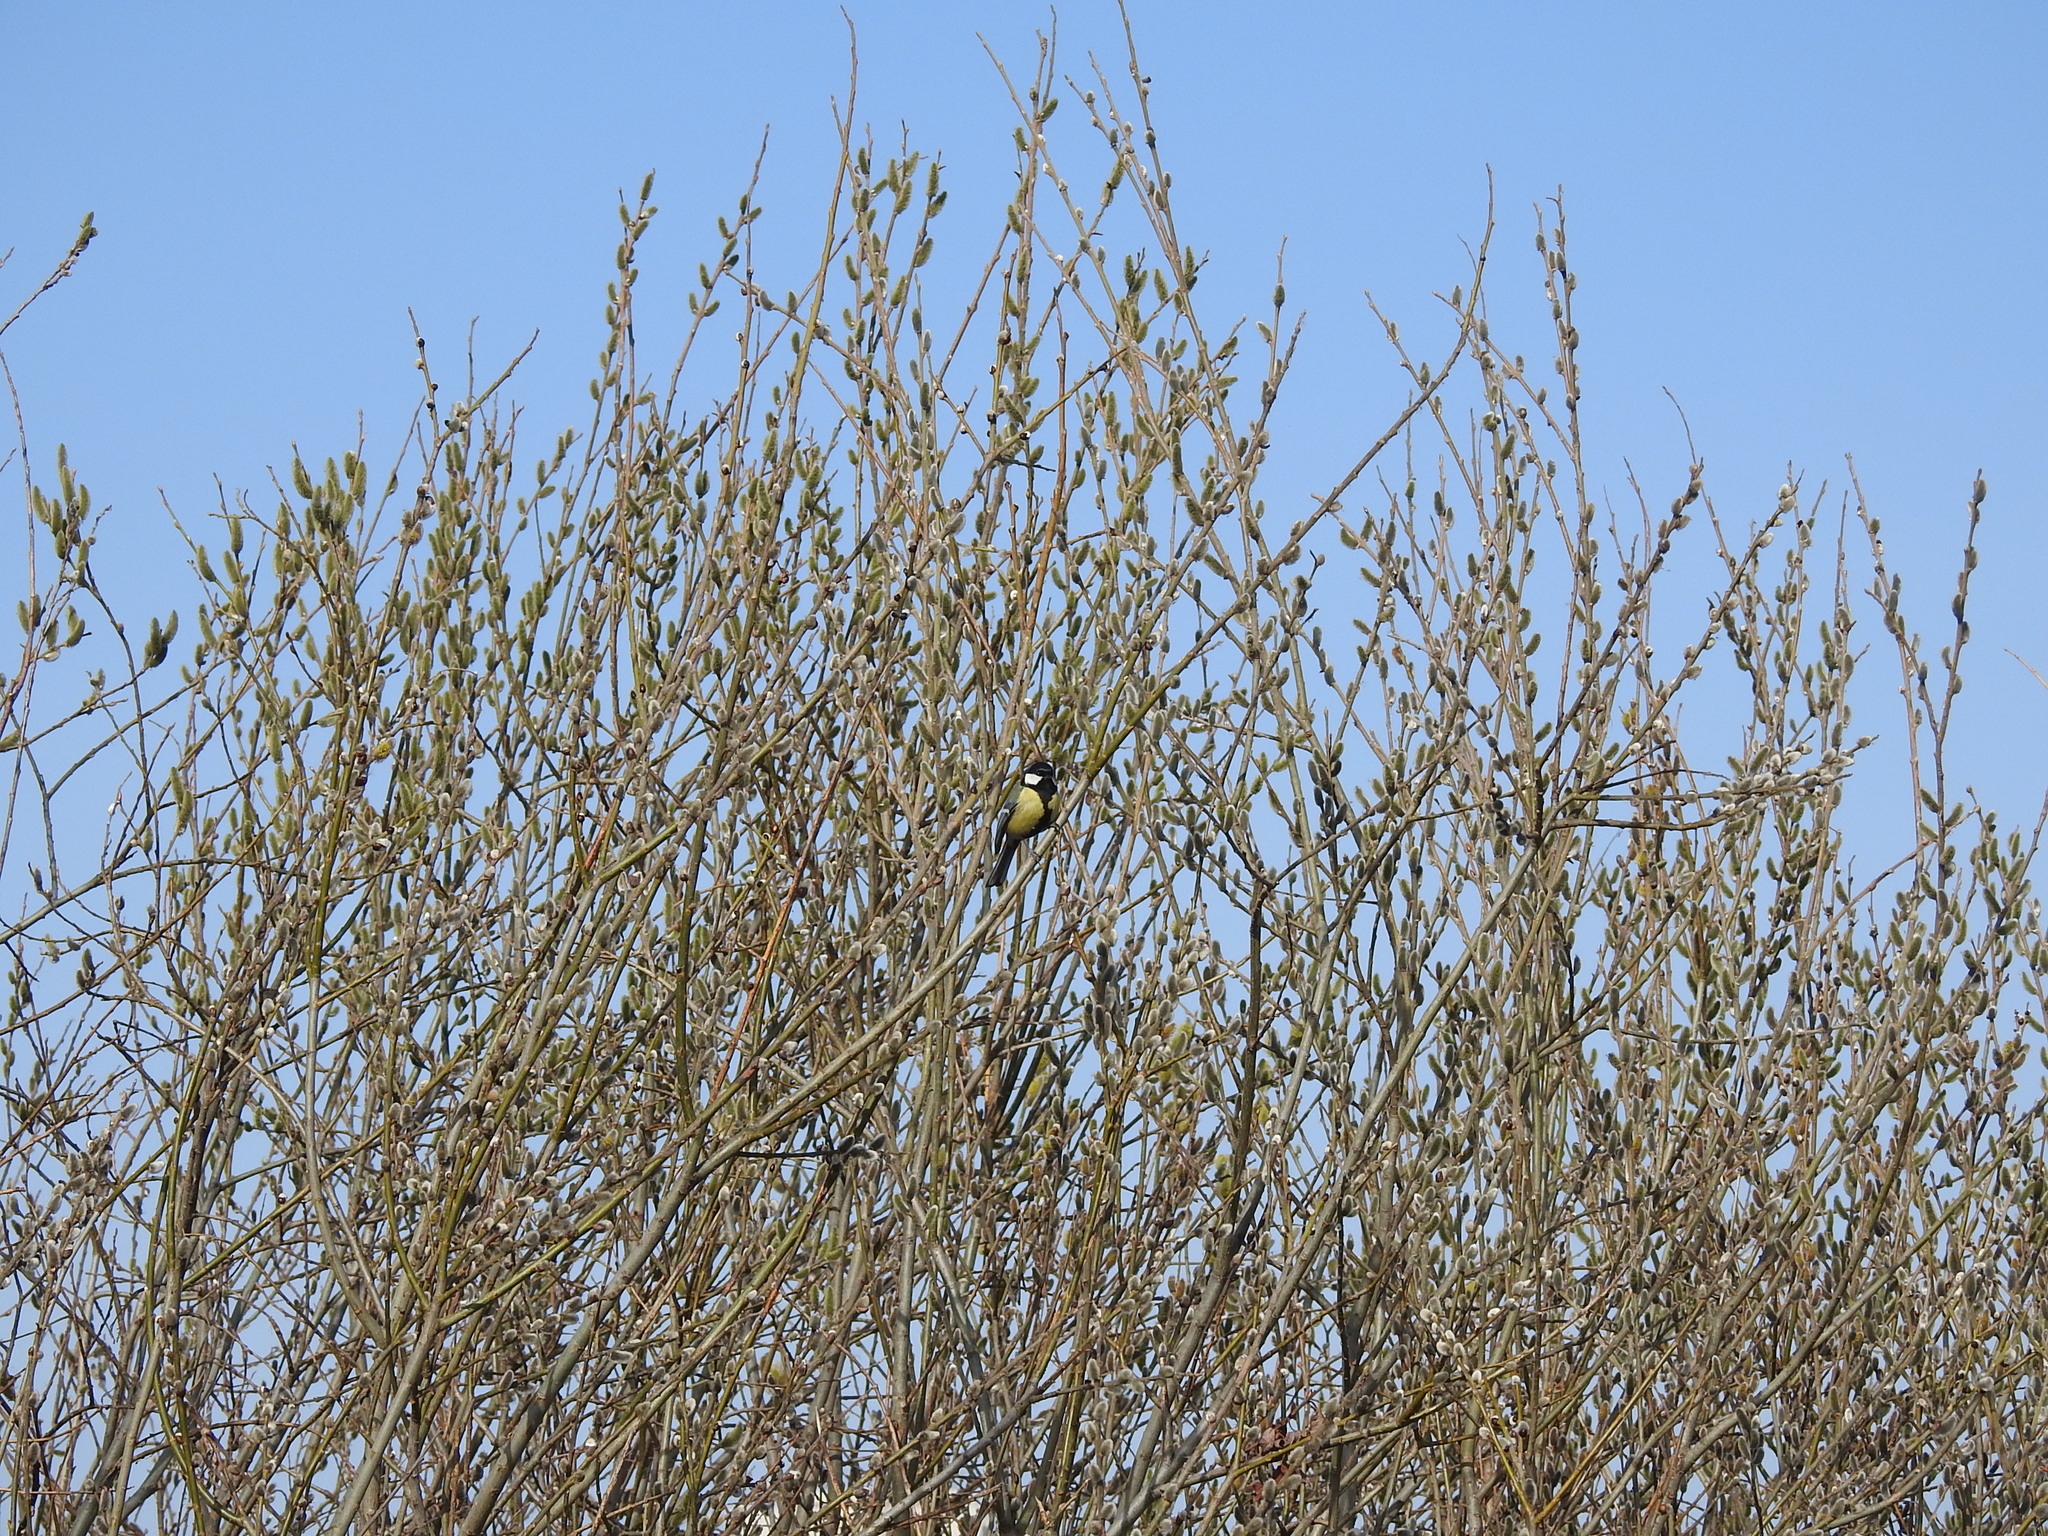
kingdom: Animalia
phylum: Chordata
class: Aves
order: Passeriformes
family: Paridae
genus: Parus
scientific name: Parus major
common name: Great tit
